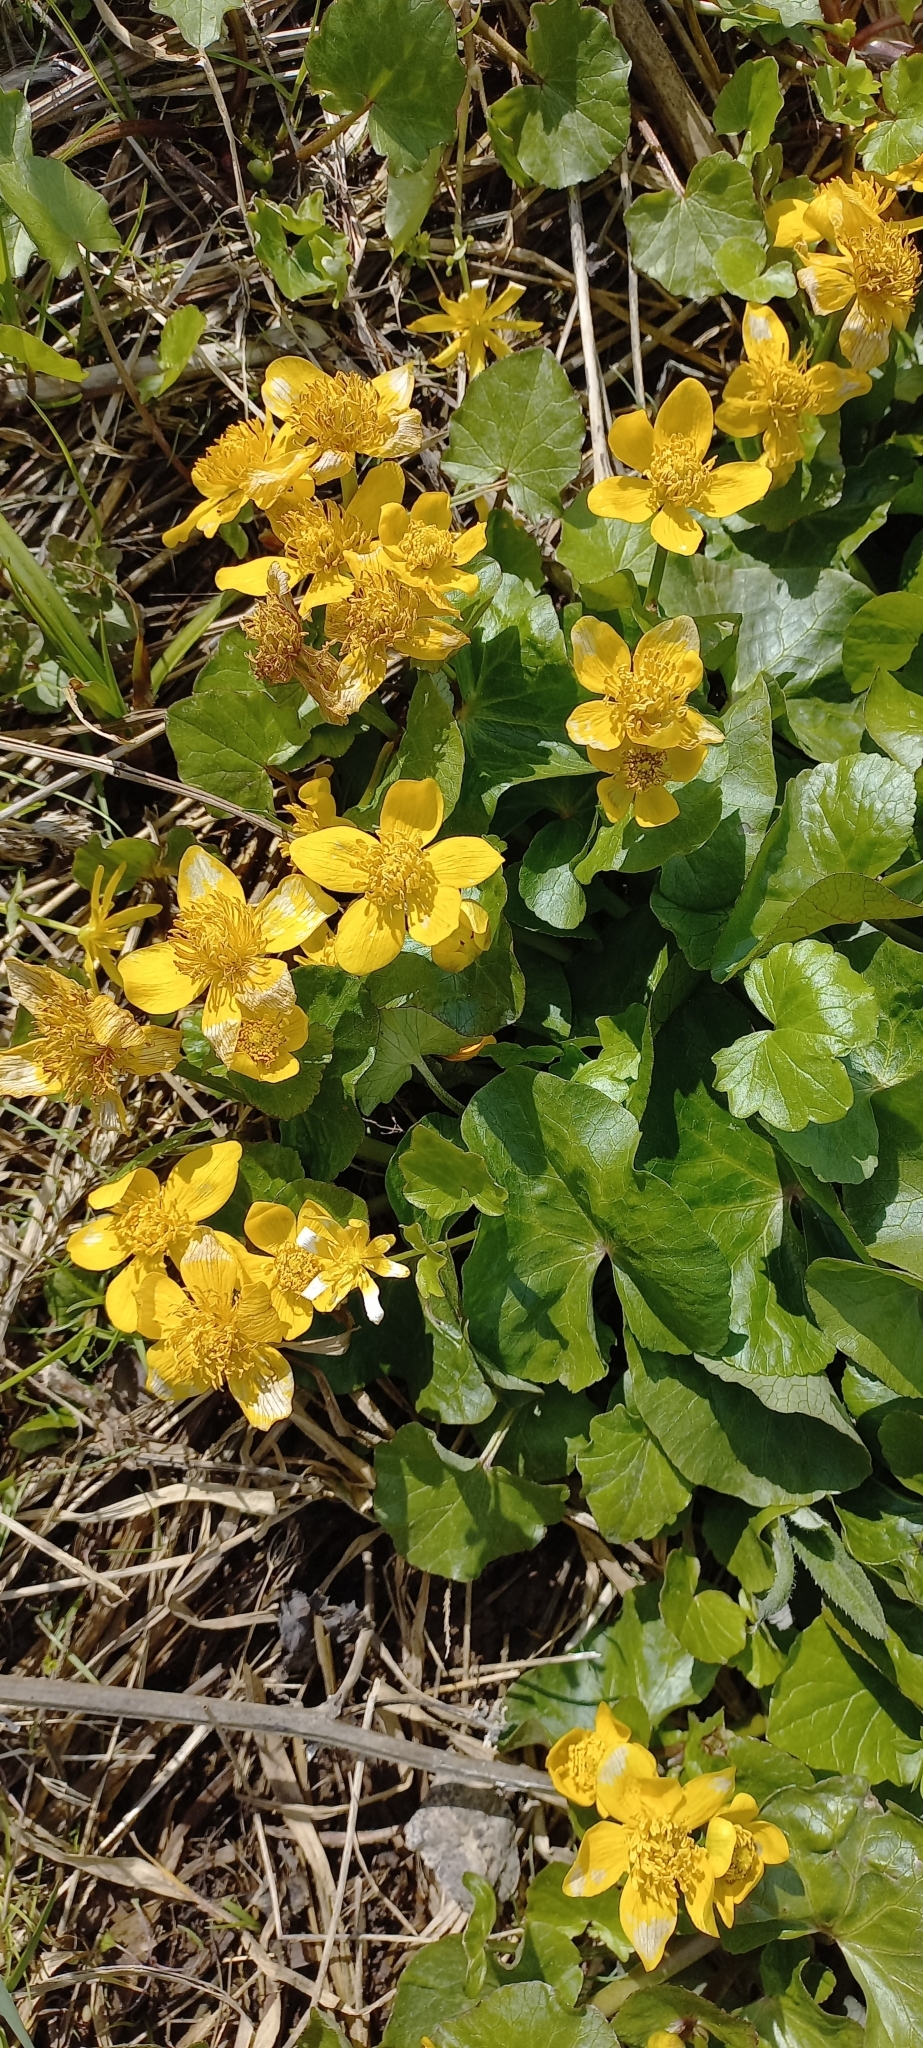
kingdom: Plantae
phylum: Tracheophyta
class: Magnoliopsida
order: Ranunculales
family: Ranunculaceae
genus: Caltha
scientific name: Caltha palustris
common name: Marsh marigold
